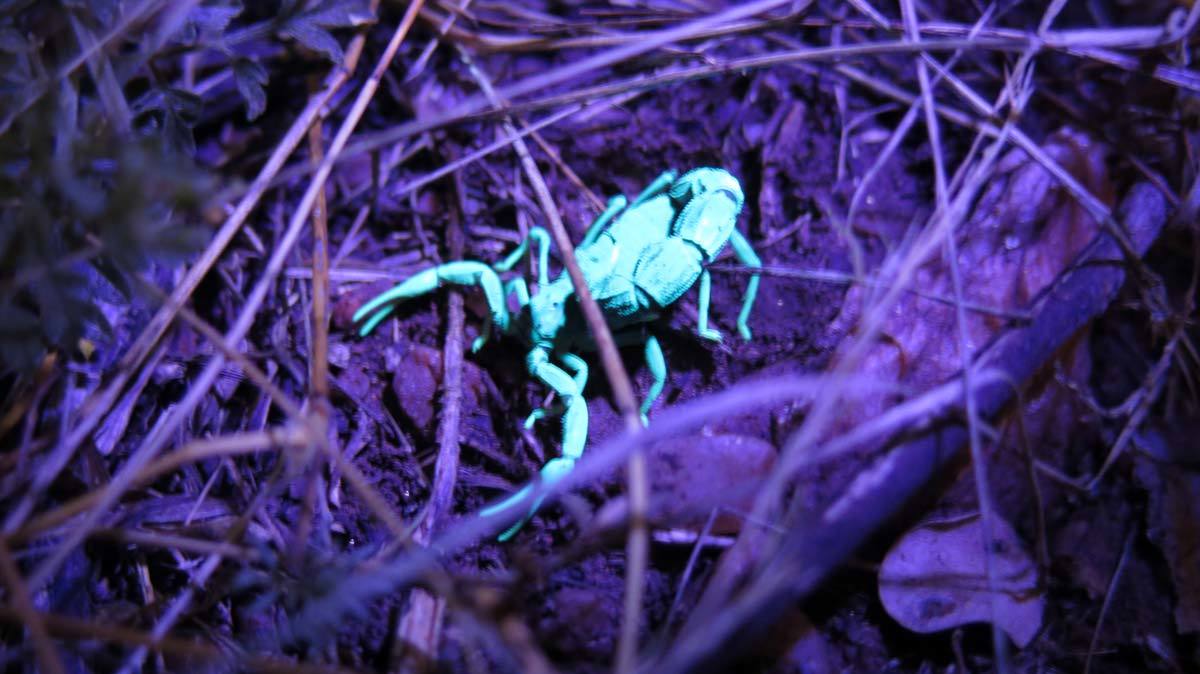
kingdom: Animalia
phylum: Arthropoda
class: Arachnida
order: Scorpiones
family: Buthidae
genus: Parabuthus
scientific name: Parabuthus transvaalicus
